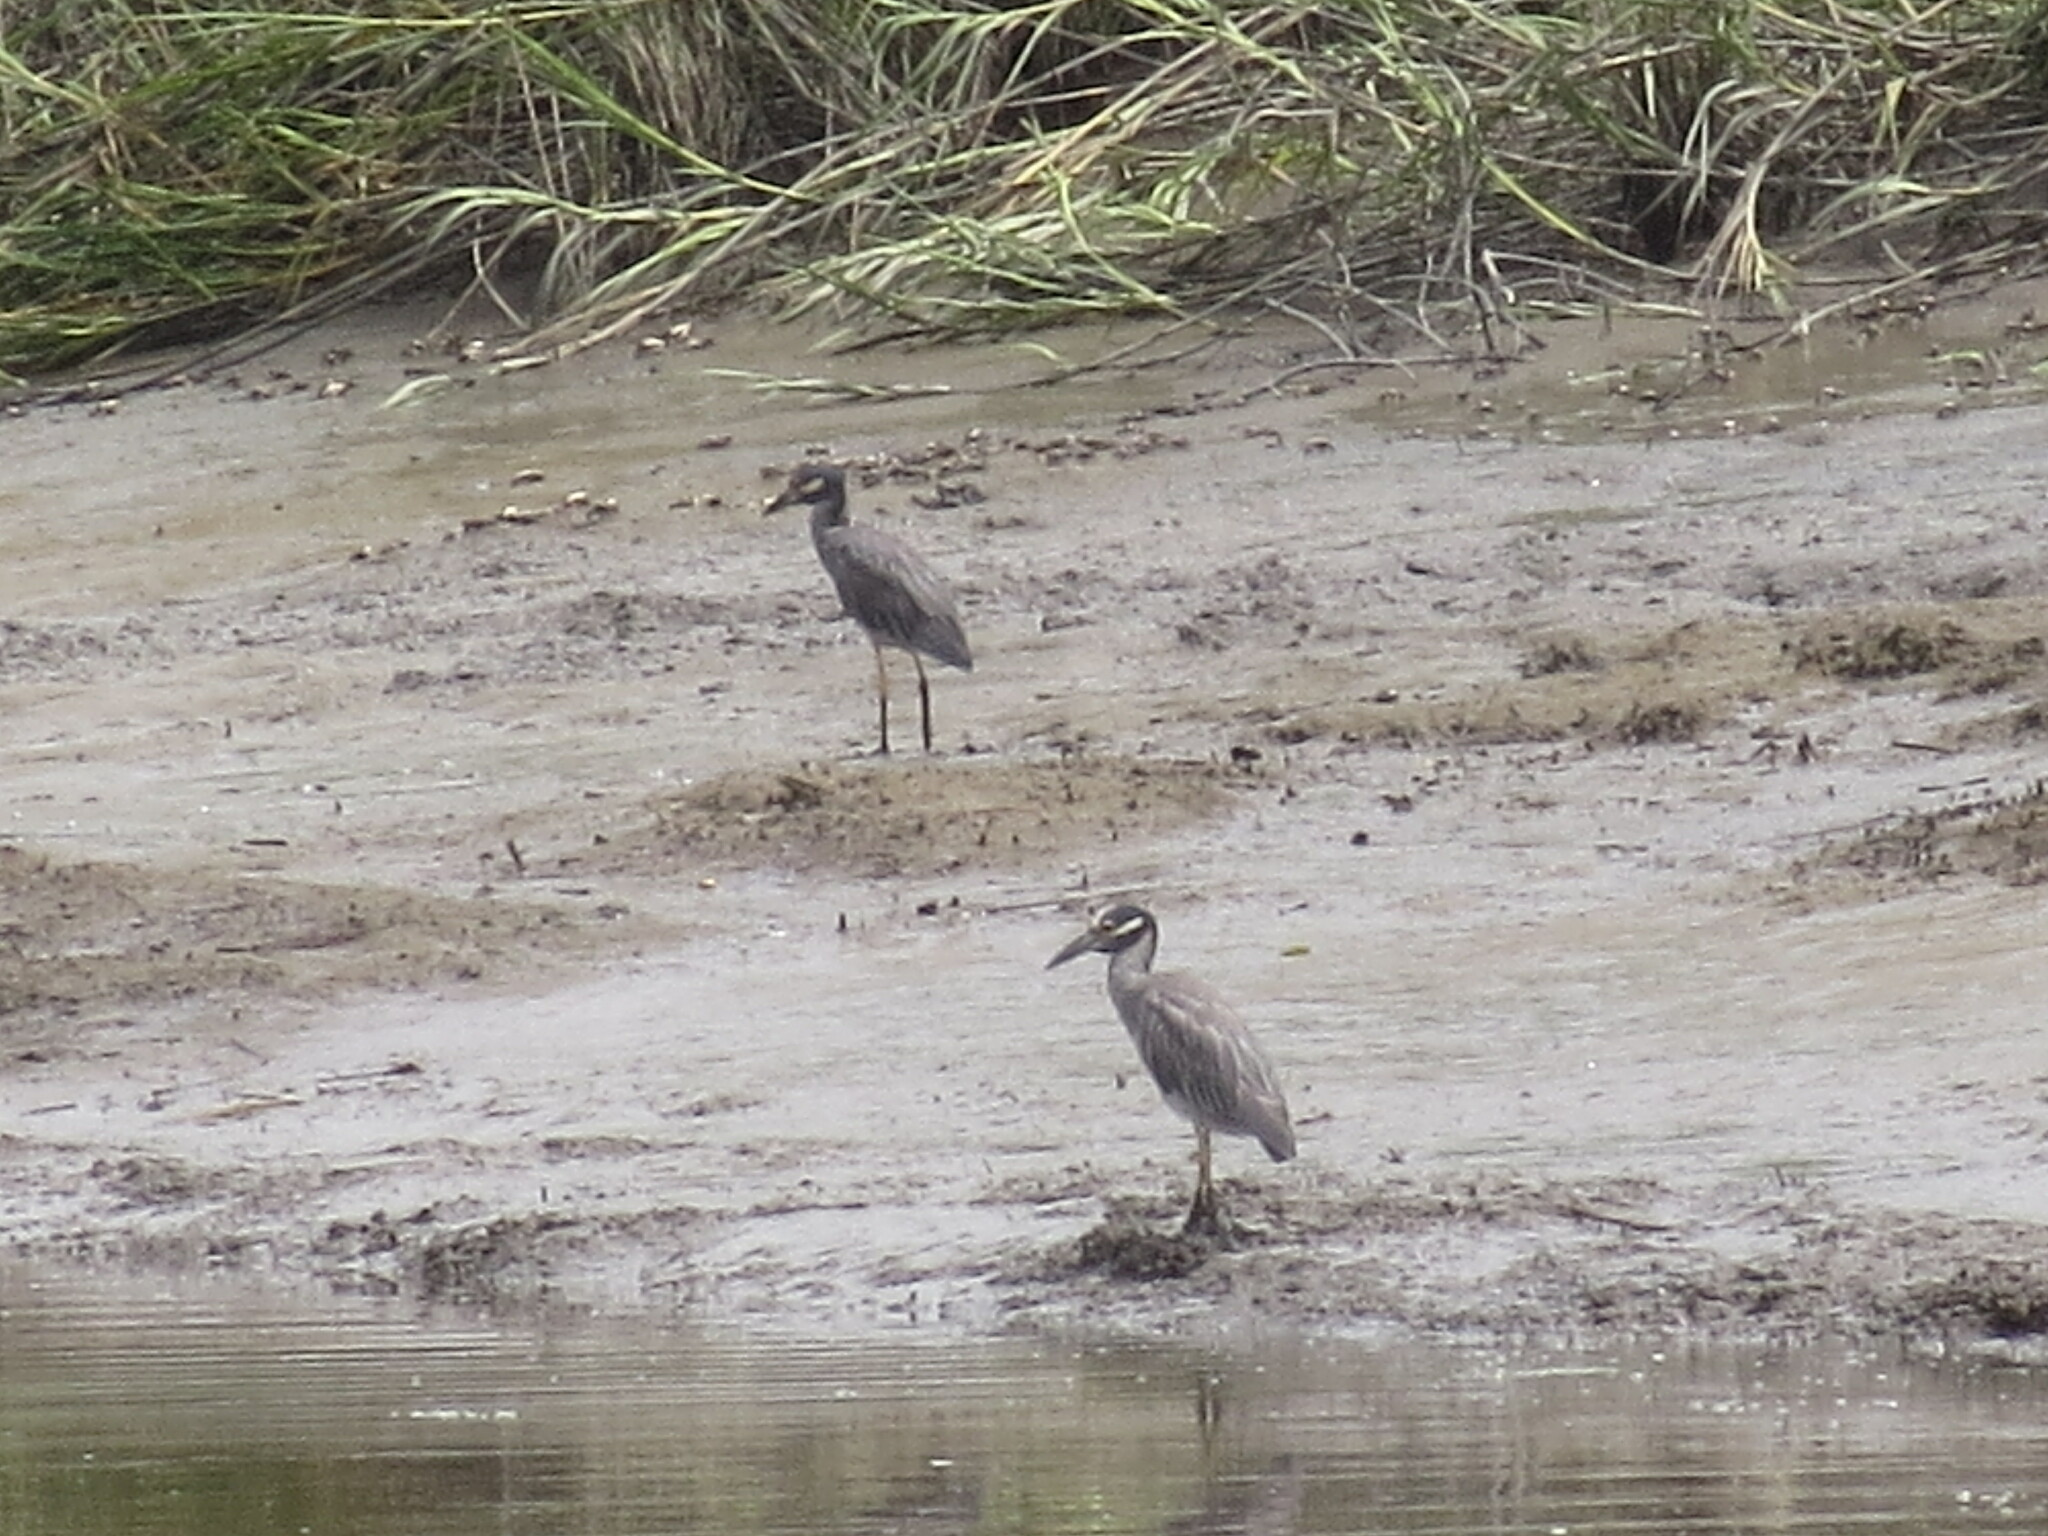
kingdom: Animalia
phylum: Chordata
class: Aves
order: Pelecaniformes
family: Ardeidae
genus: Nyctanassa
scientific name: Nyctanassa violacea
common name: Yellow-crowned night heron
